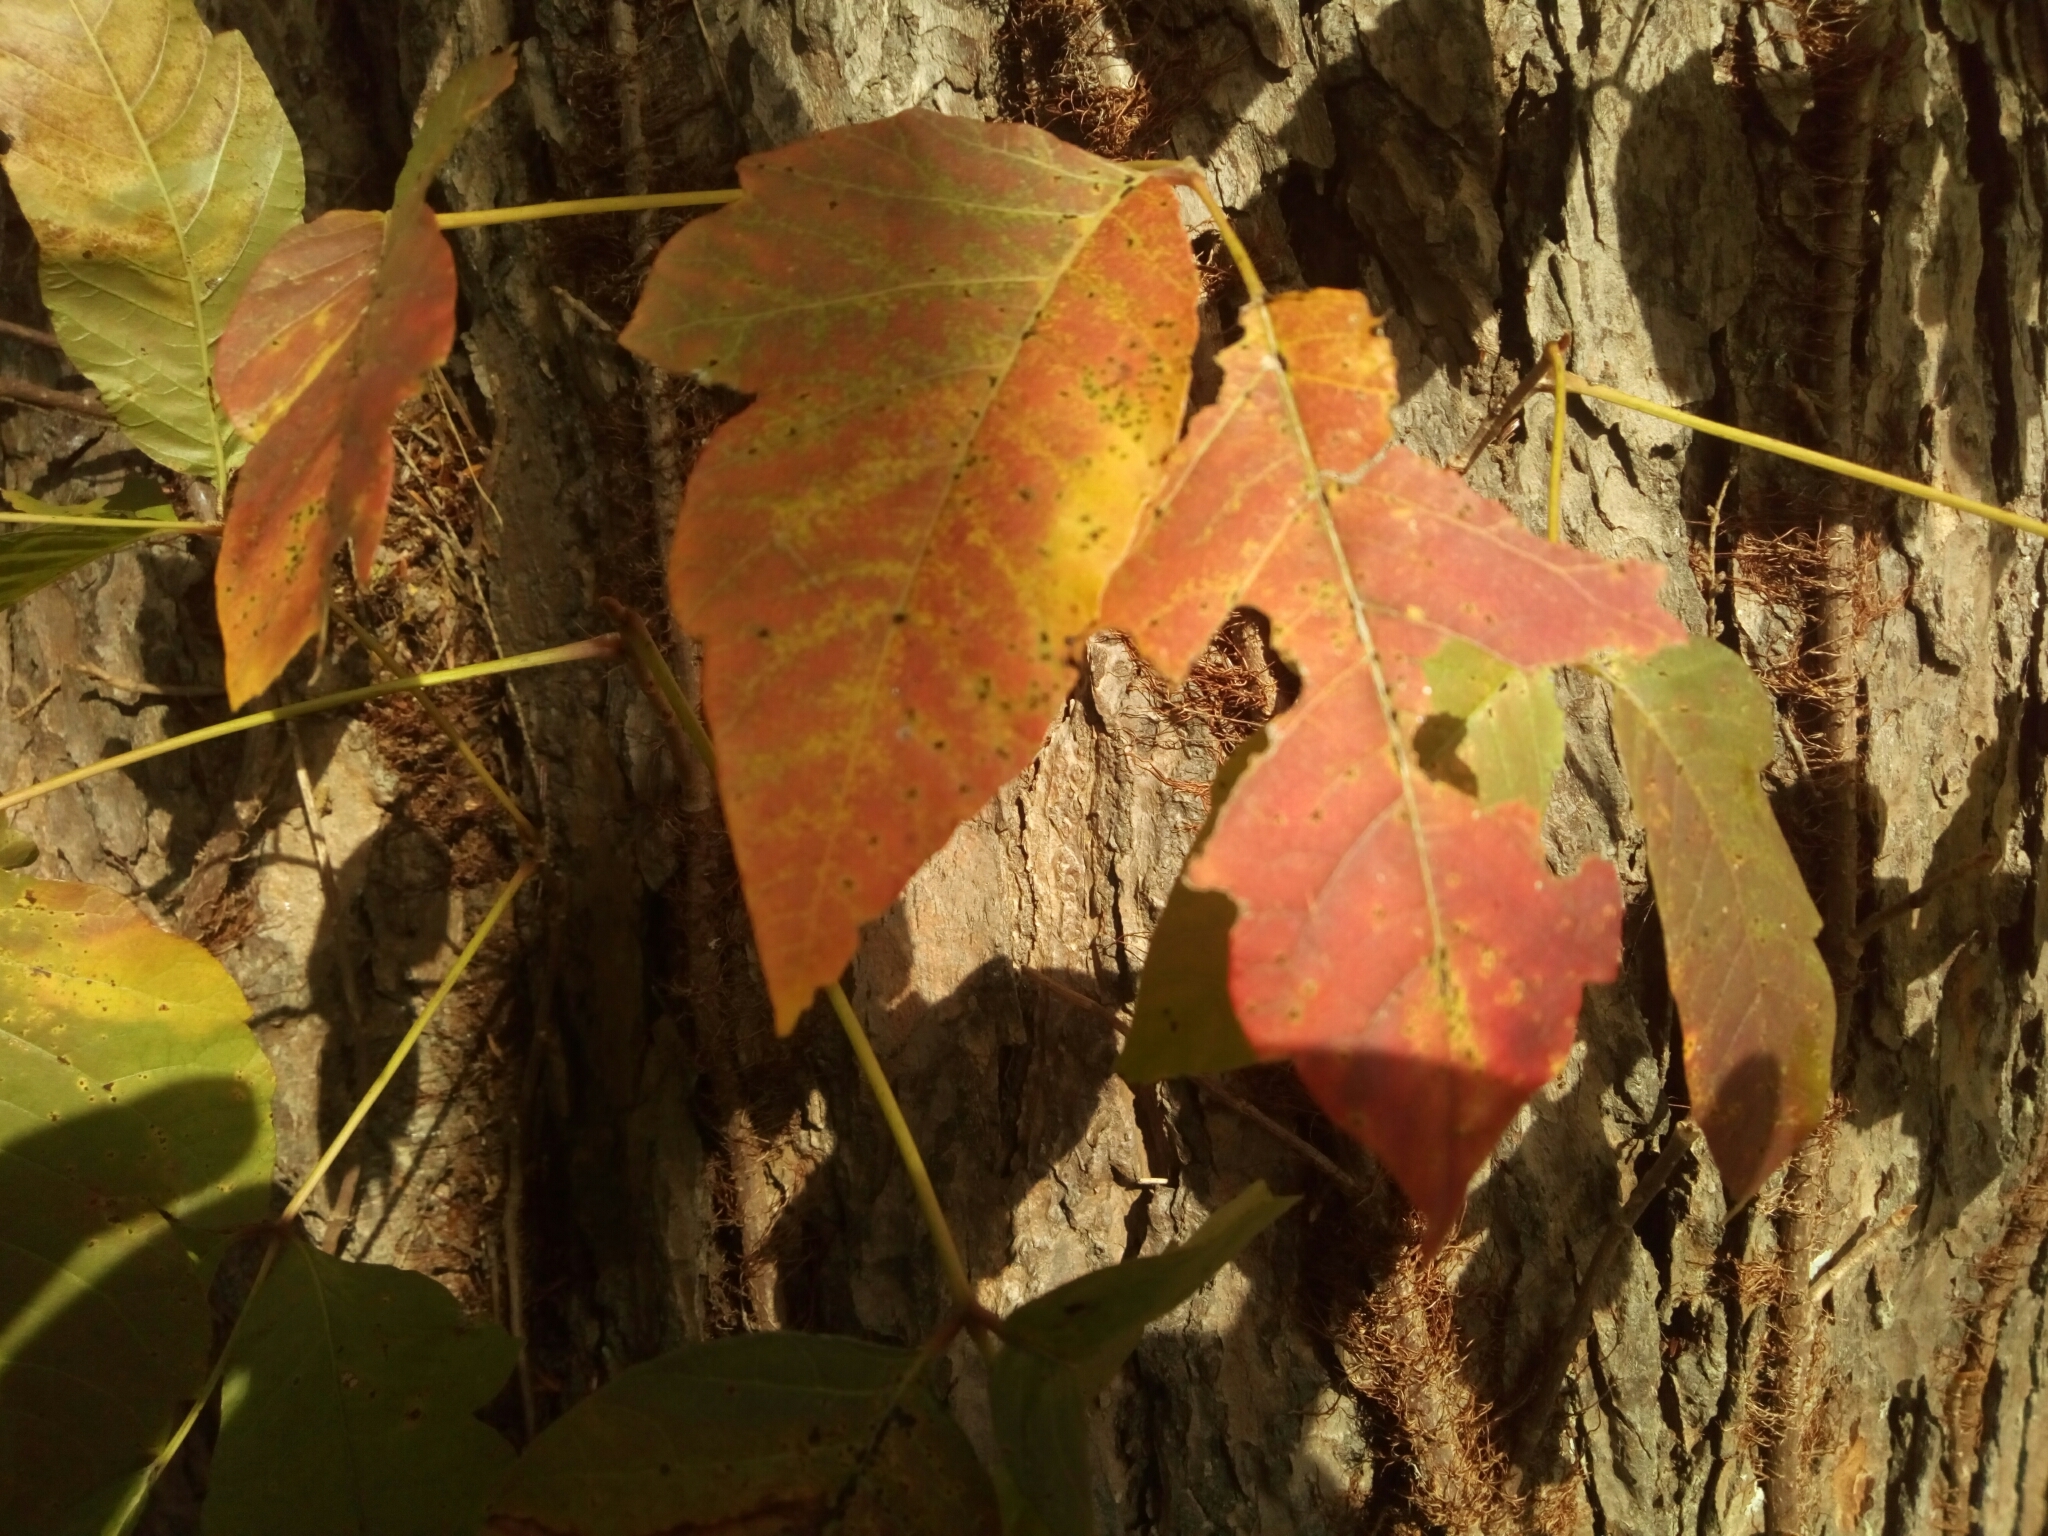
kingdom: Plantae
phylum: Tracheophyta
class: Magnoliopsida
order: Sapindales
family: Anacardiaceae
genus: Toxicodendron
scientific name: Toxicodendron radicans
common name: Poison ivy
